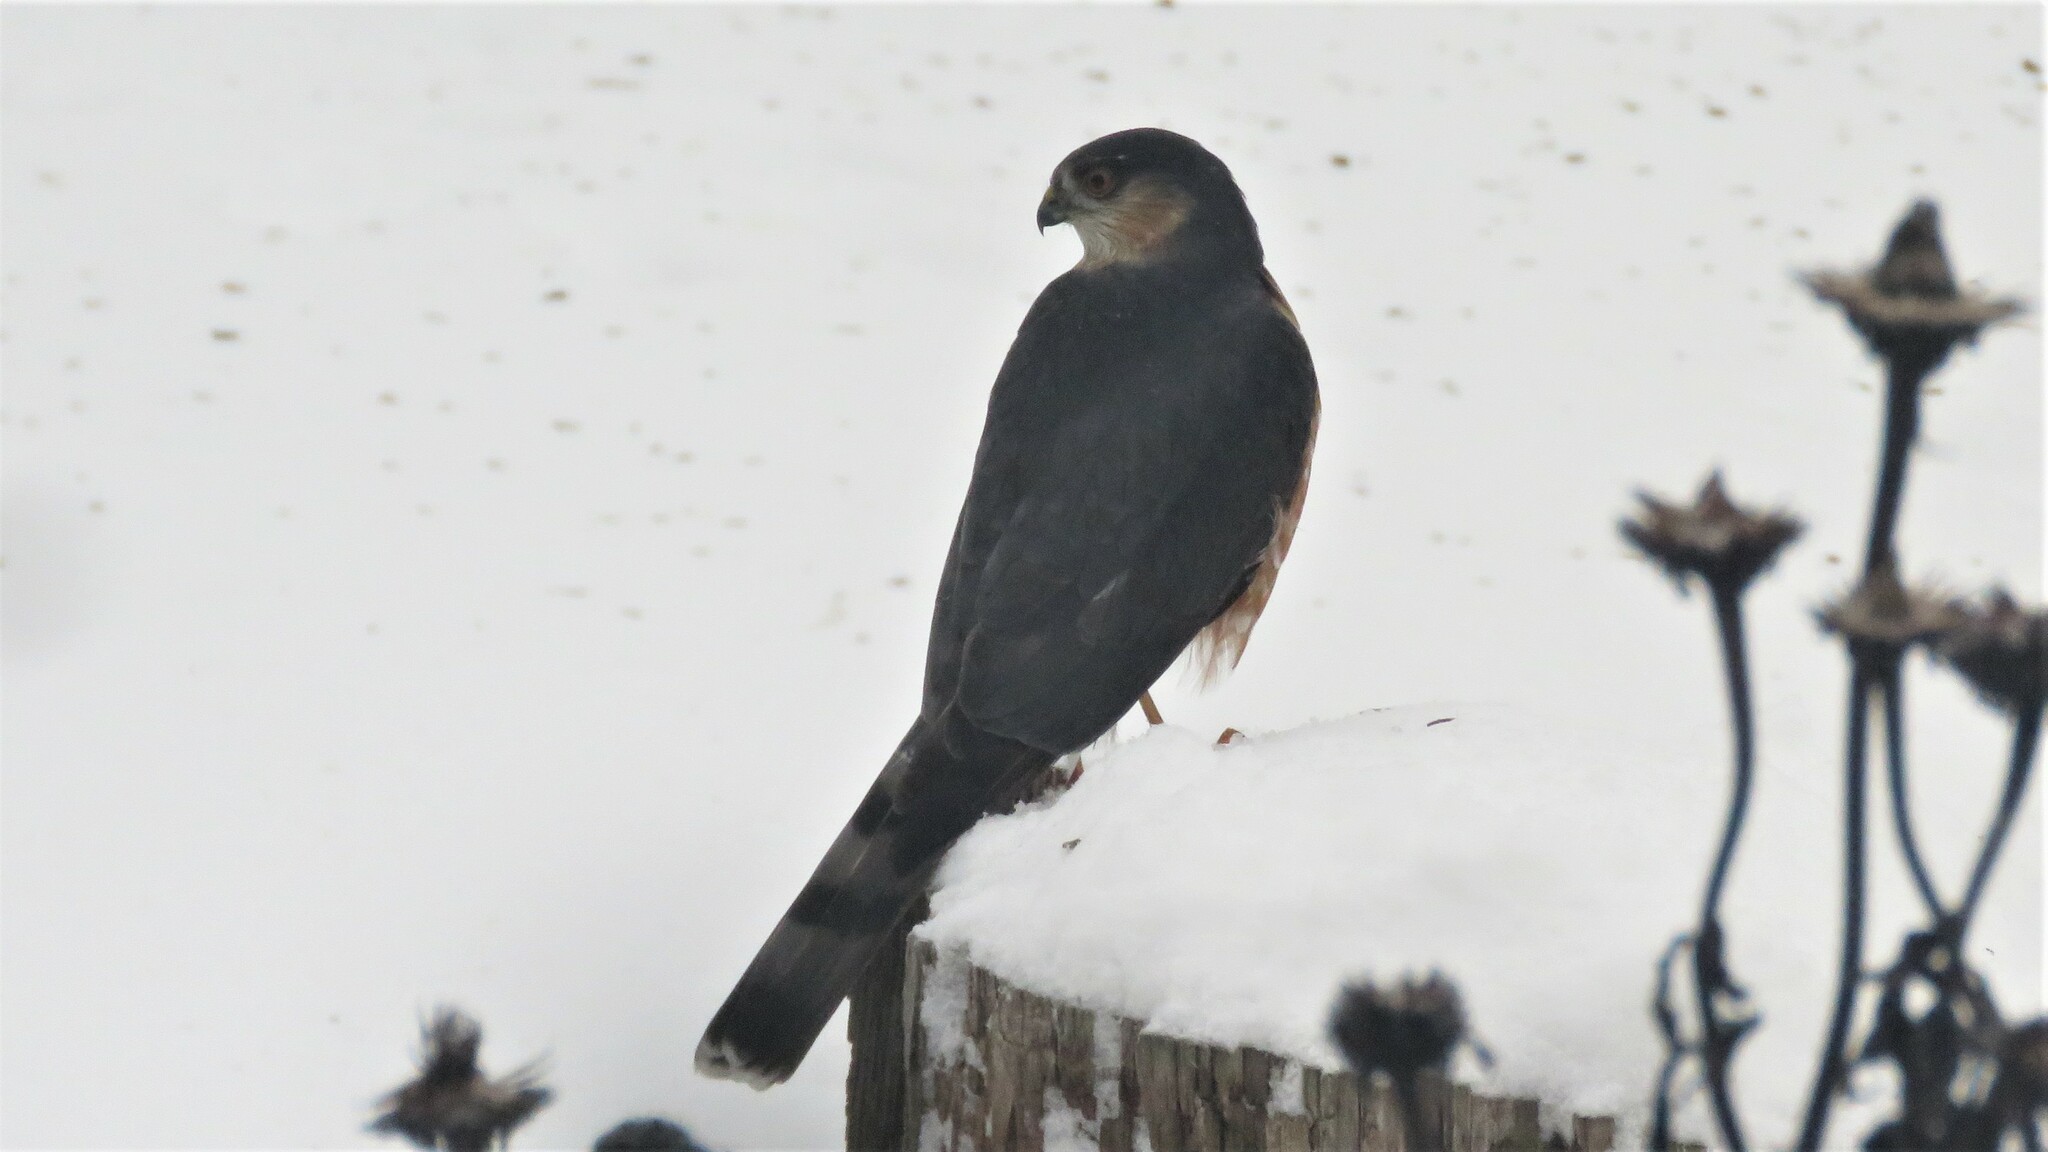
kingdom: Animalia
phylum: Chordata
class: Aves
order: Accipitriformes
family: Accipitridae
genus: Accipiter
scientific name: Accipiter striatus
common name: Sharp-shinned hawk
